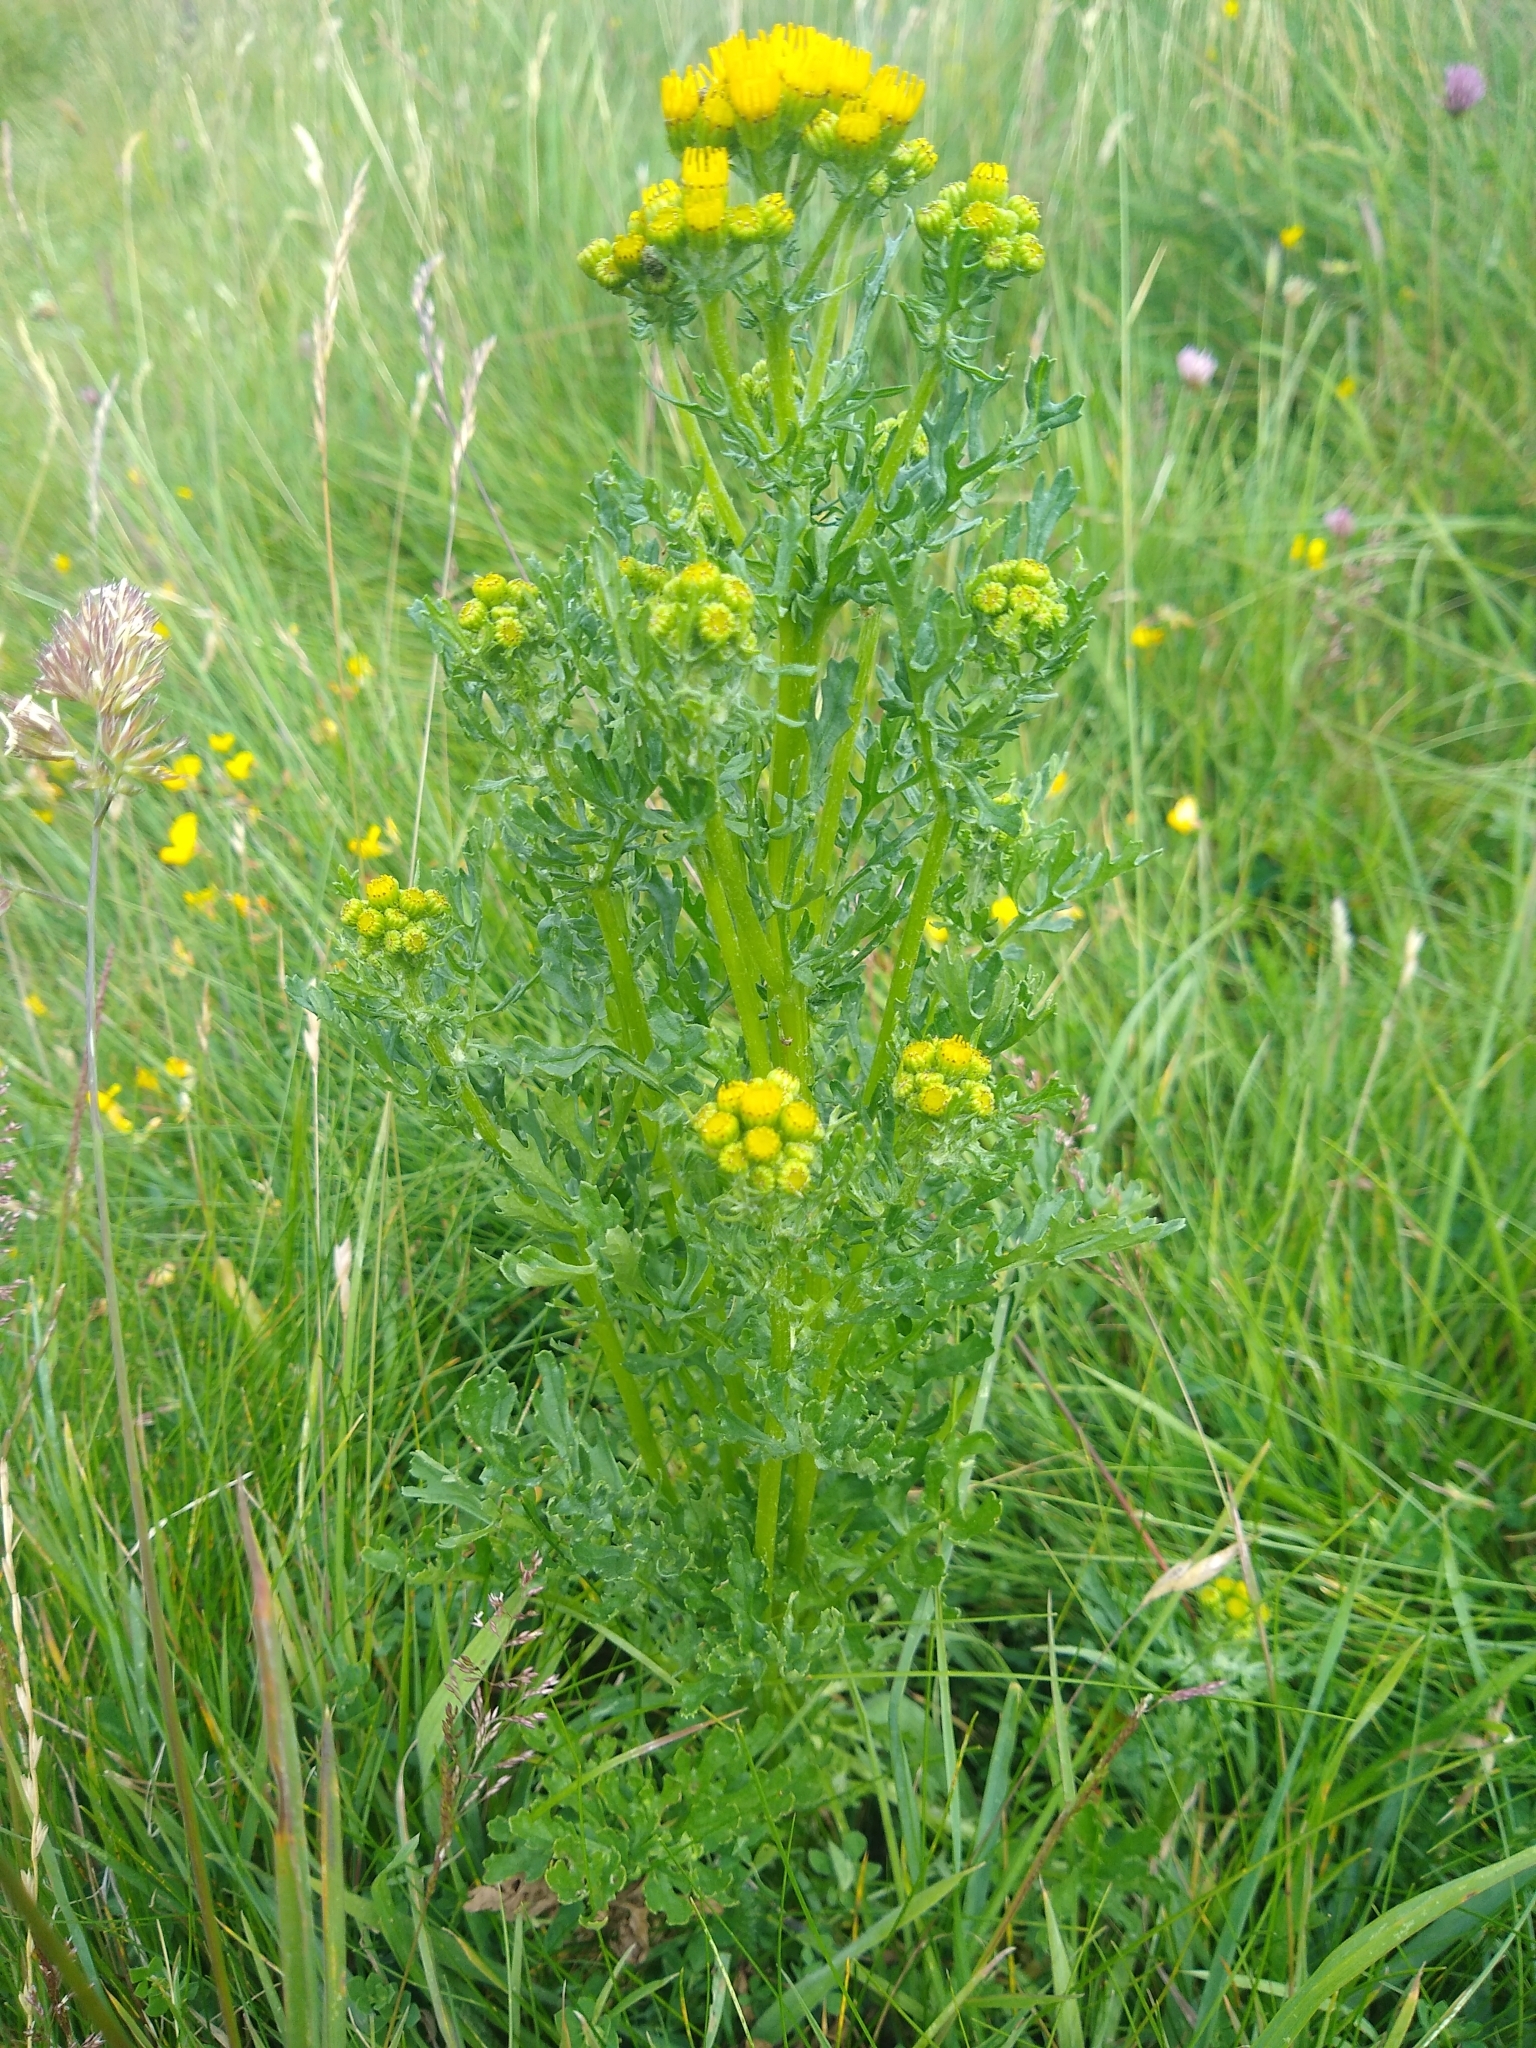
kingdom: Plantae
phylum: Tracheophyta
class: Magnoliopsida
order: Asterales
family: Asteraceae
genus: Jacobaea
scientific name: Jacobaea vulgaris
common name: Stinking willie
